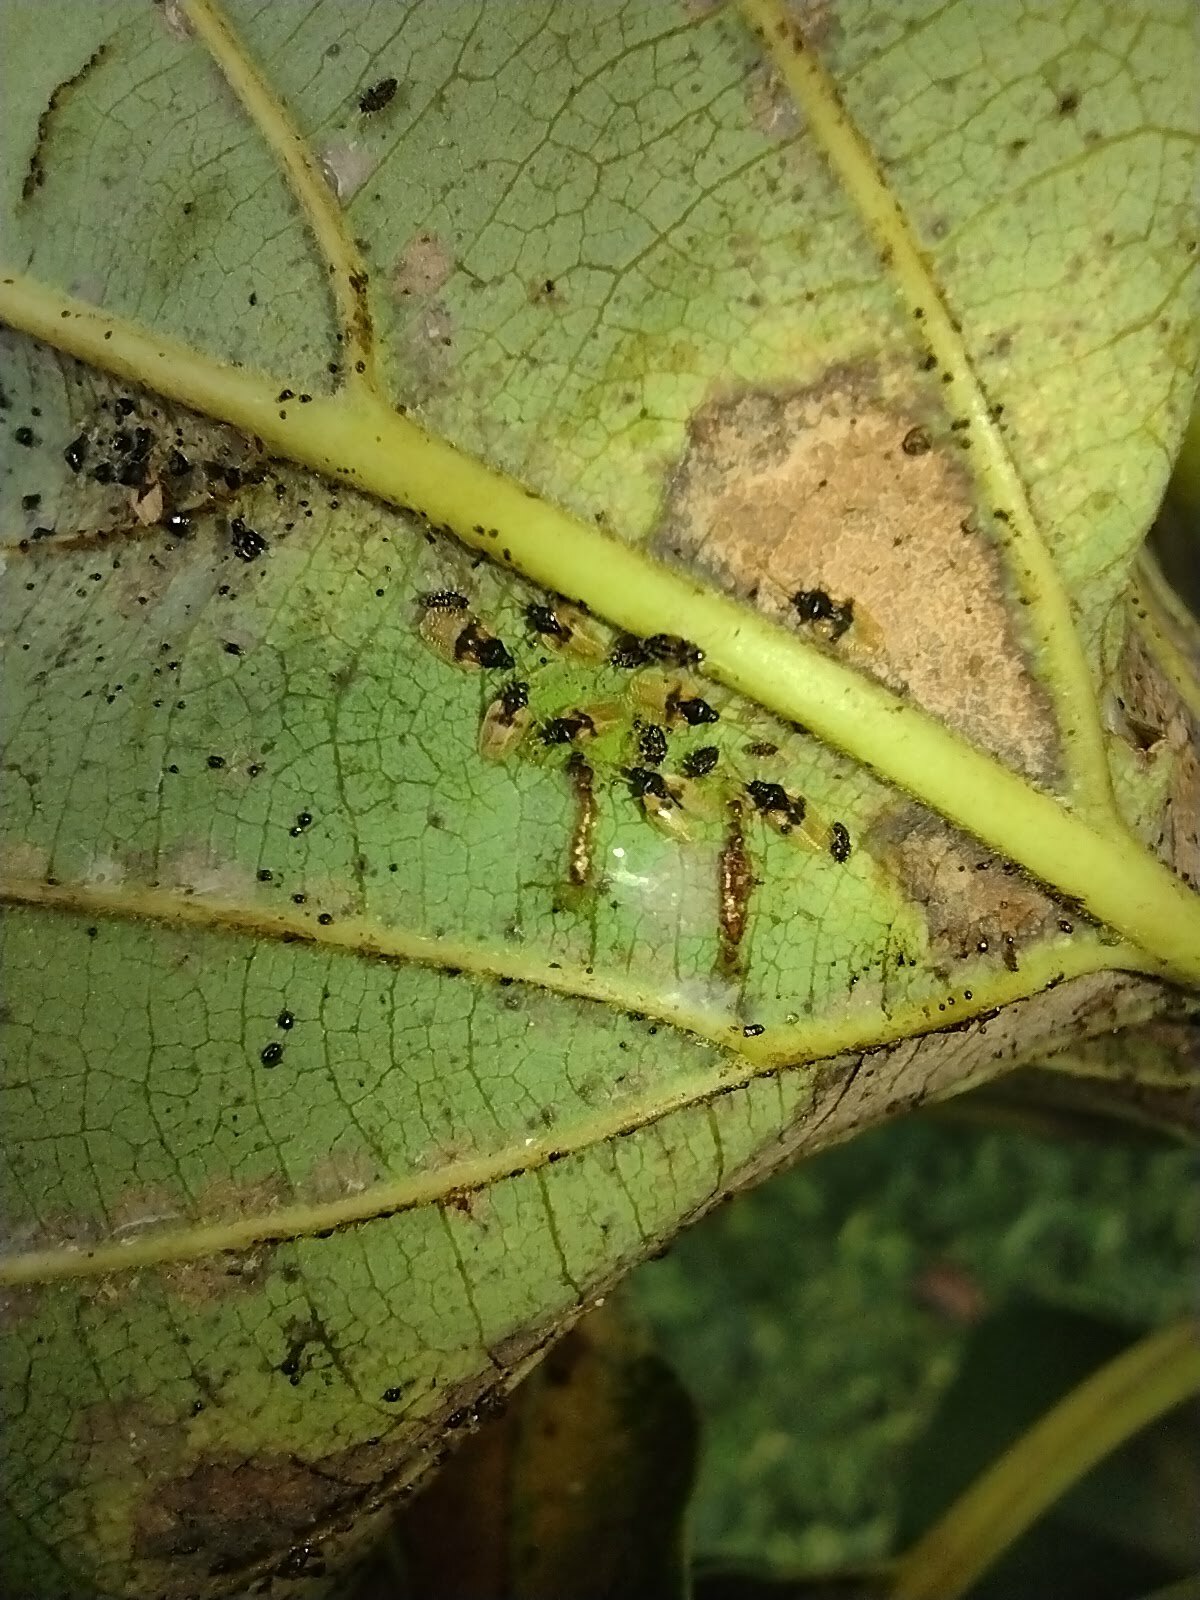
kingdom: Animalia
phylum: Arthropoda
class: Insecta
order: Hemiptera
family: Tingidae
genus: Pseudacysta
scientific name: Pseudacysta perseae
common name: Avocado lace bug
